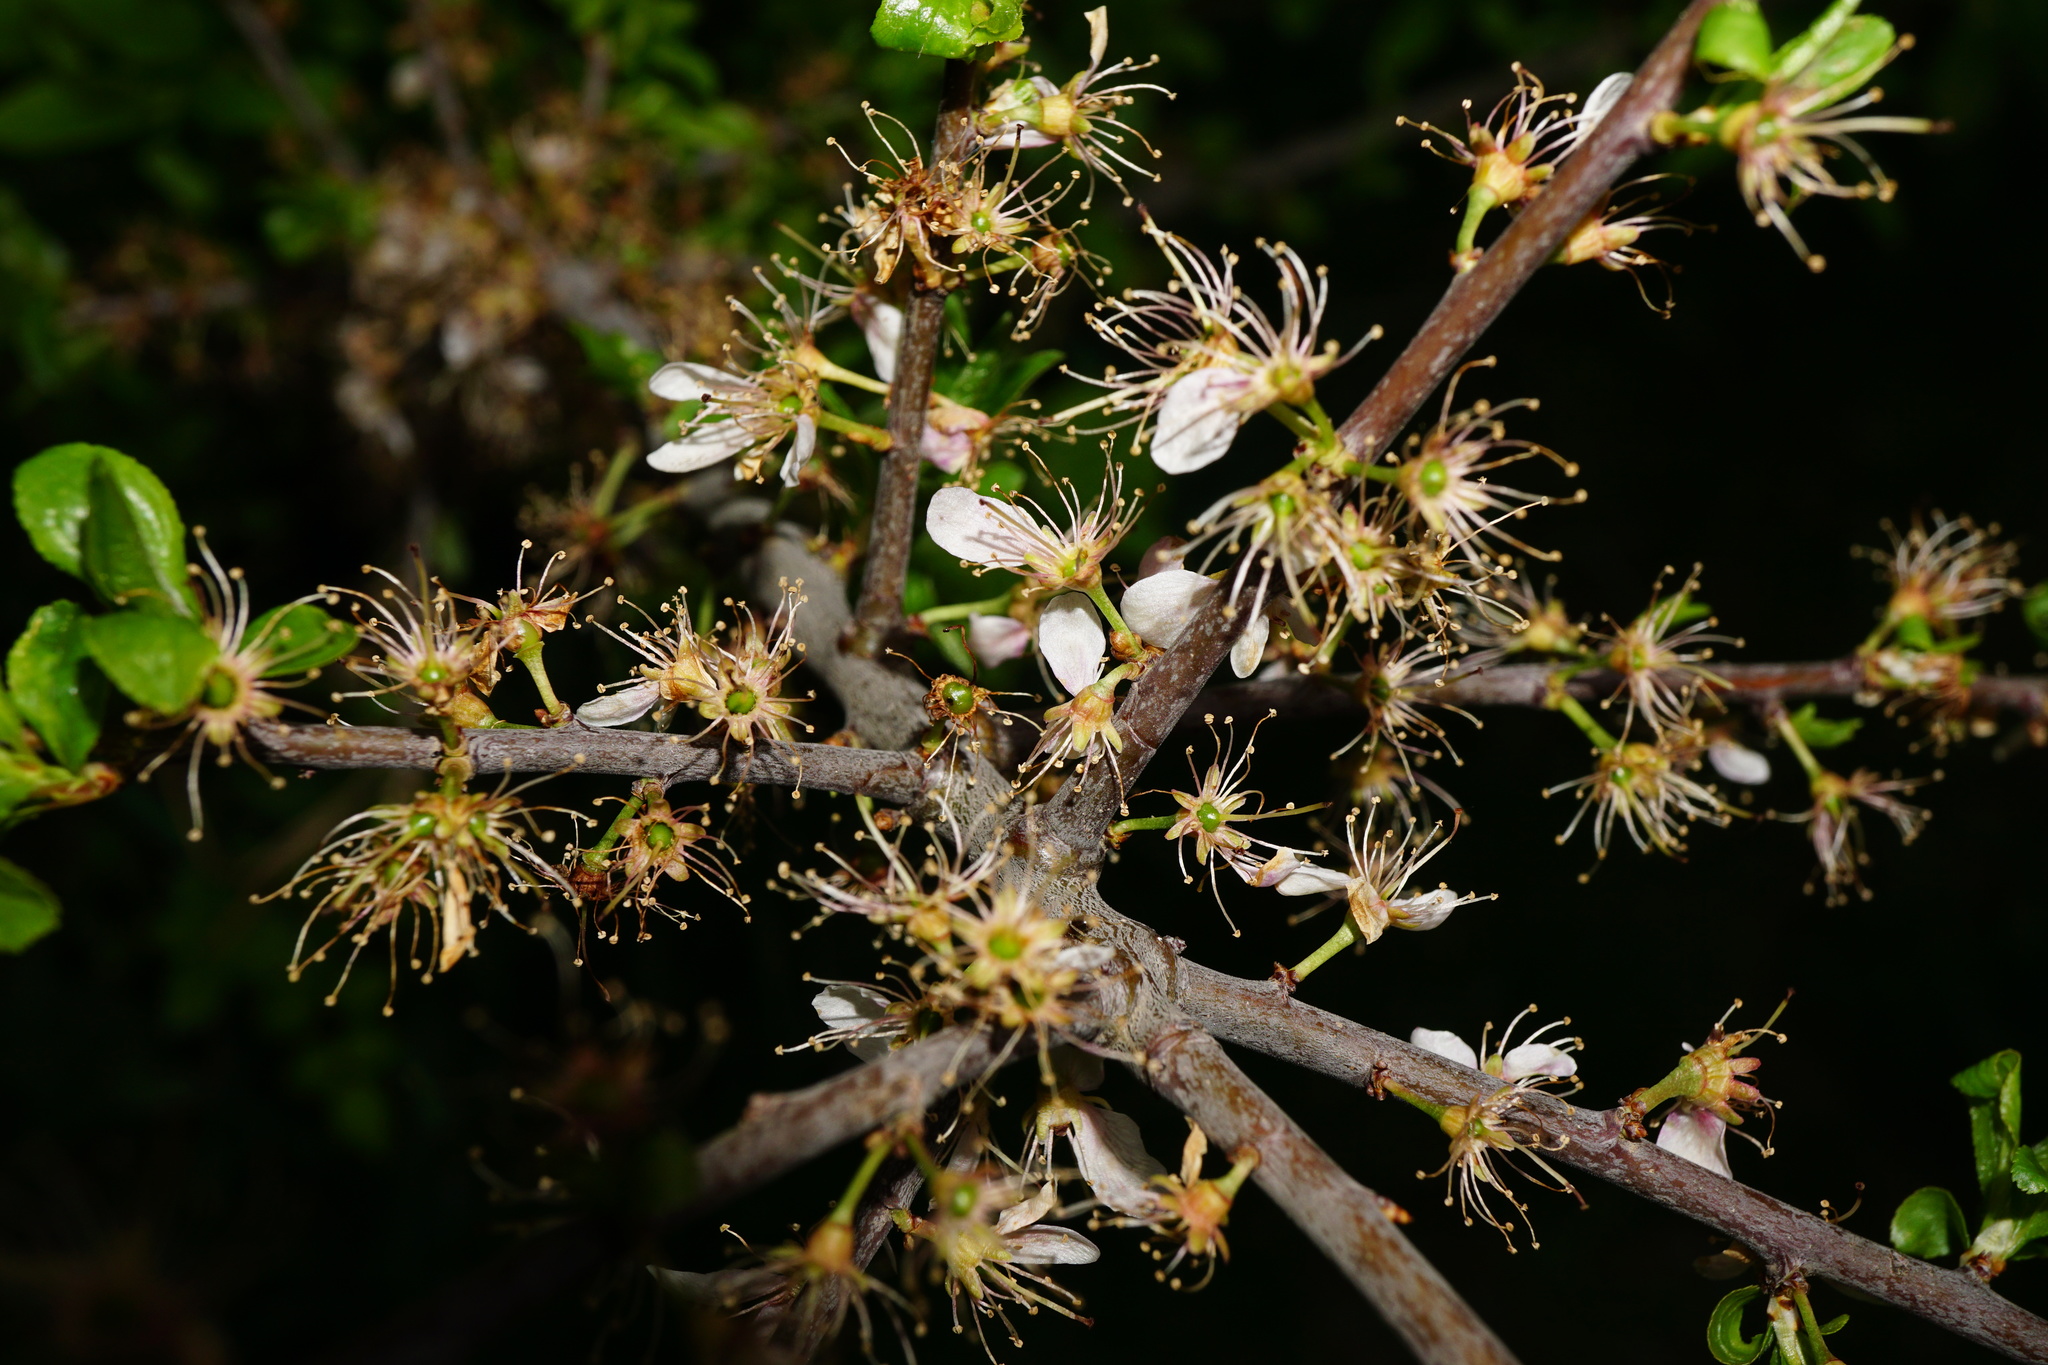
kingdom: Plantae
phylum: Tracheophyta
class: Magnoliopsida
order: Rosales
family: Rosaceae
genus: Prunus
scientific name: Prunus spinosa
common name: Blackthorn
